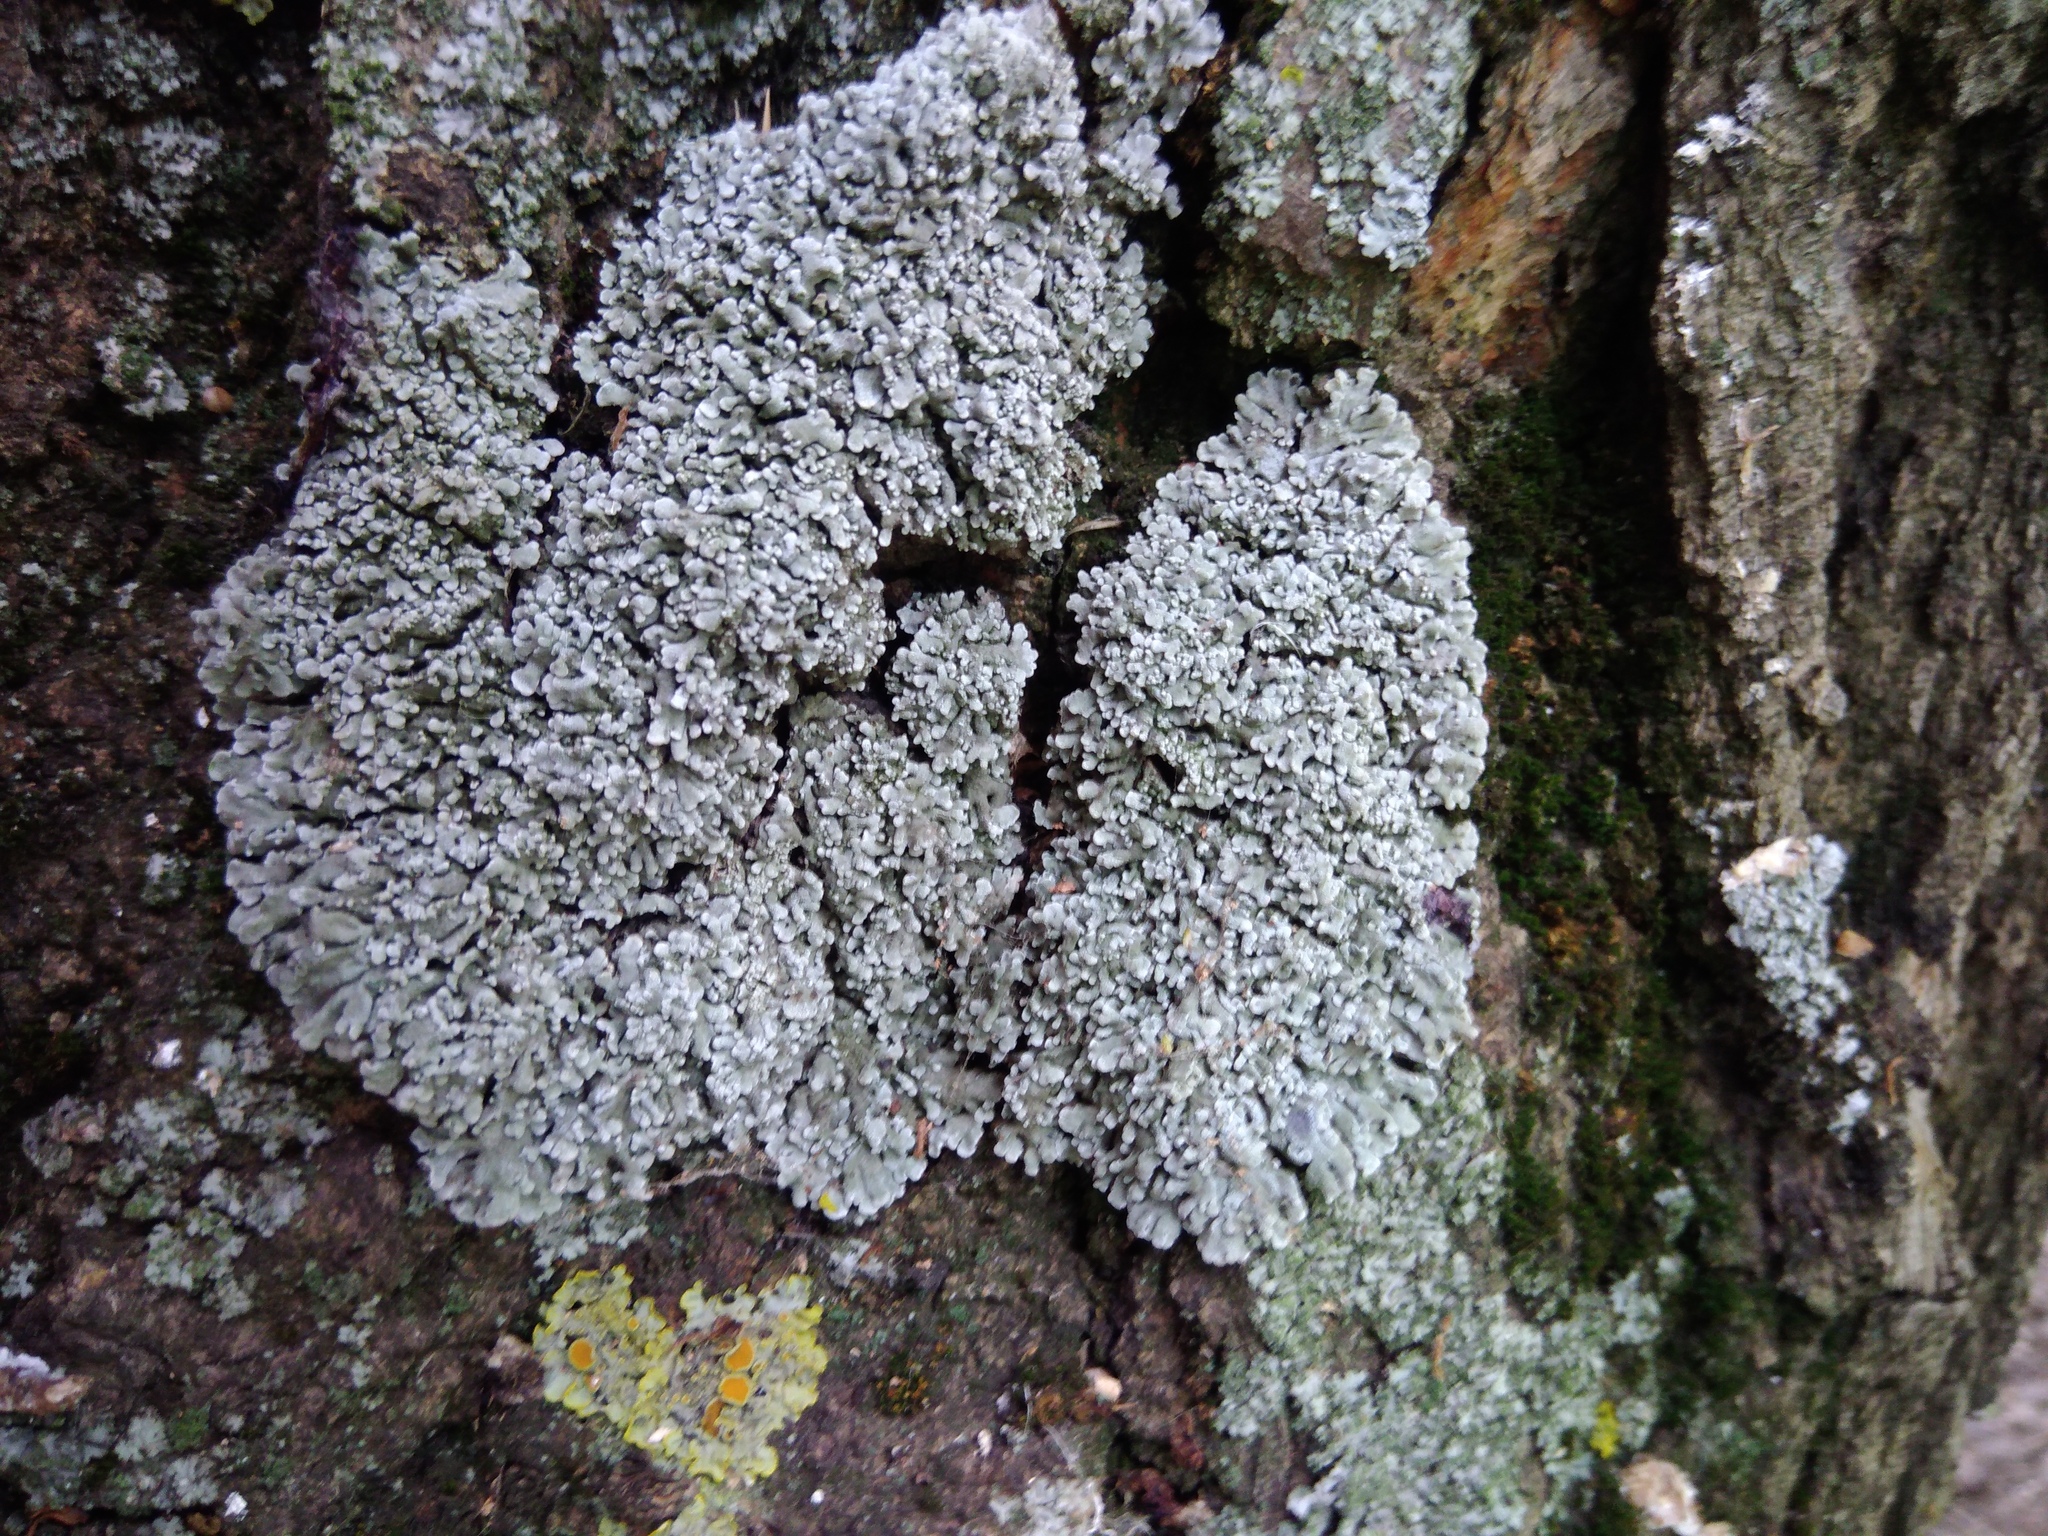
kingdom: Fungi
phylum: Ascomycota
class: Lecanoromycetes
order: Caliciales
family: Physciaceae
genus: Physconia
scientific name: Physconia distorta
